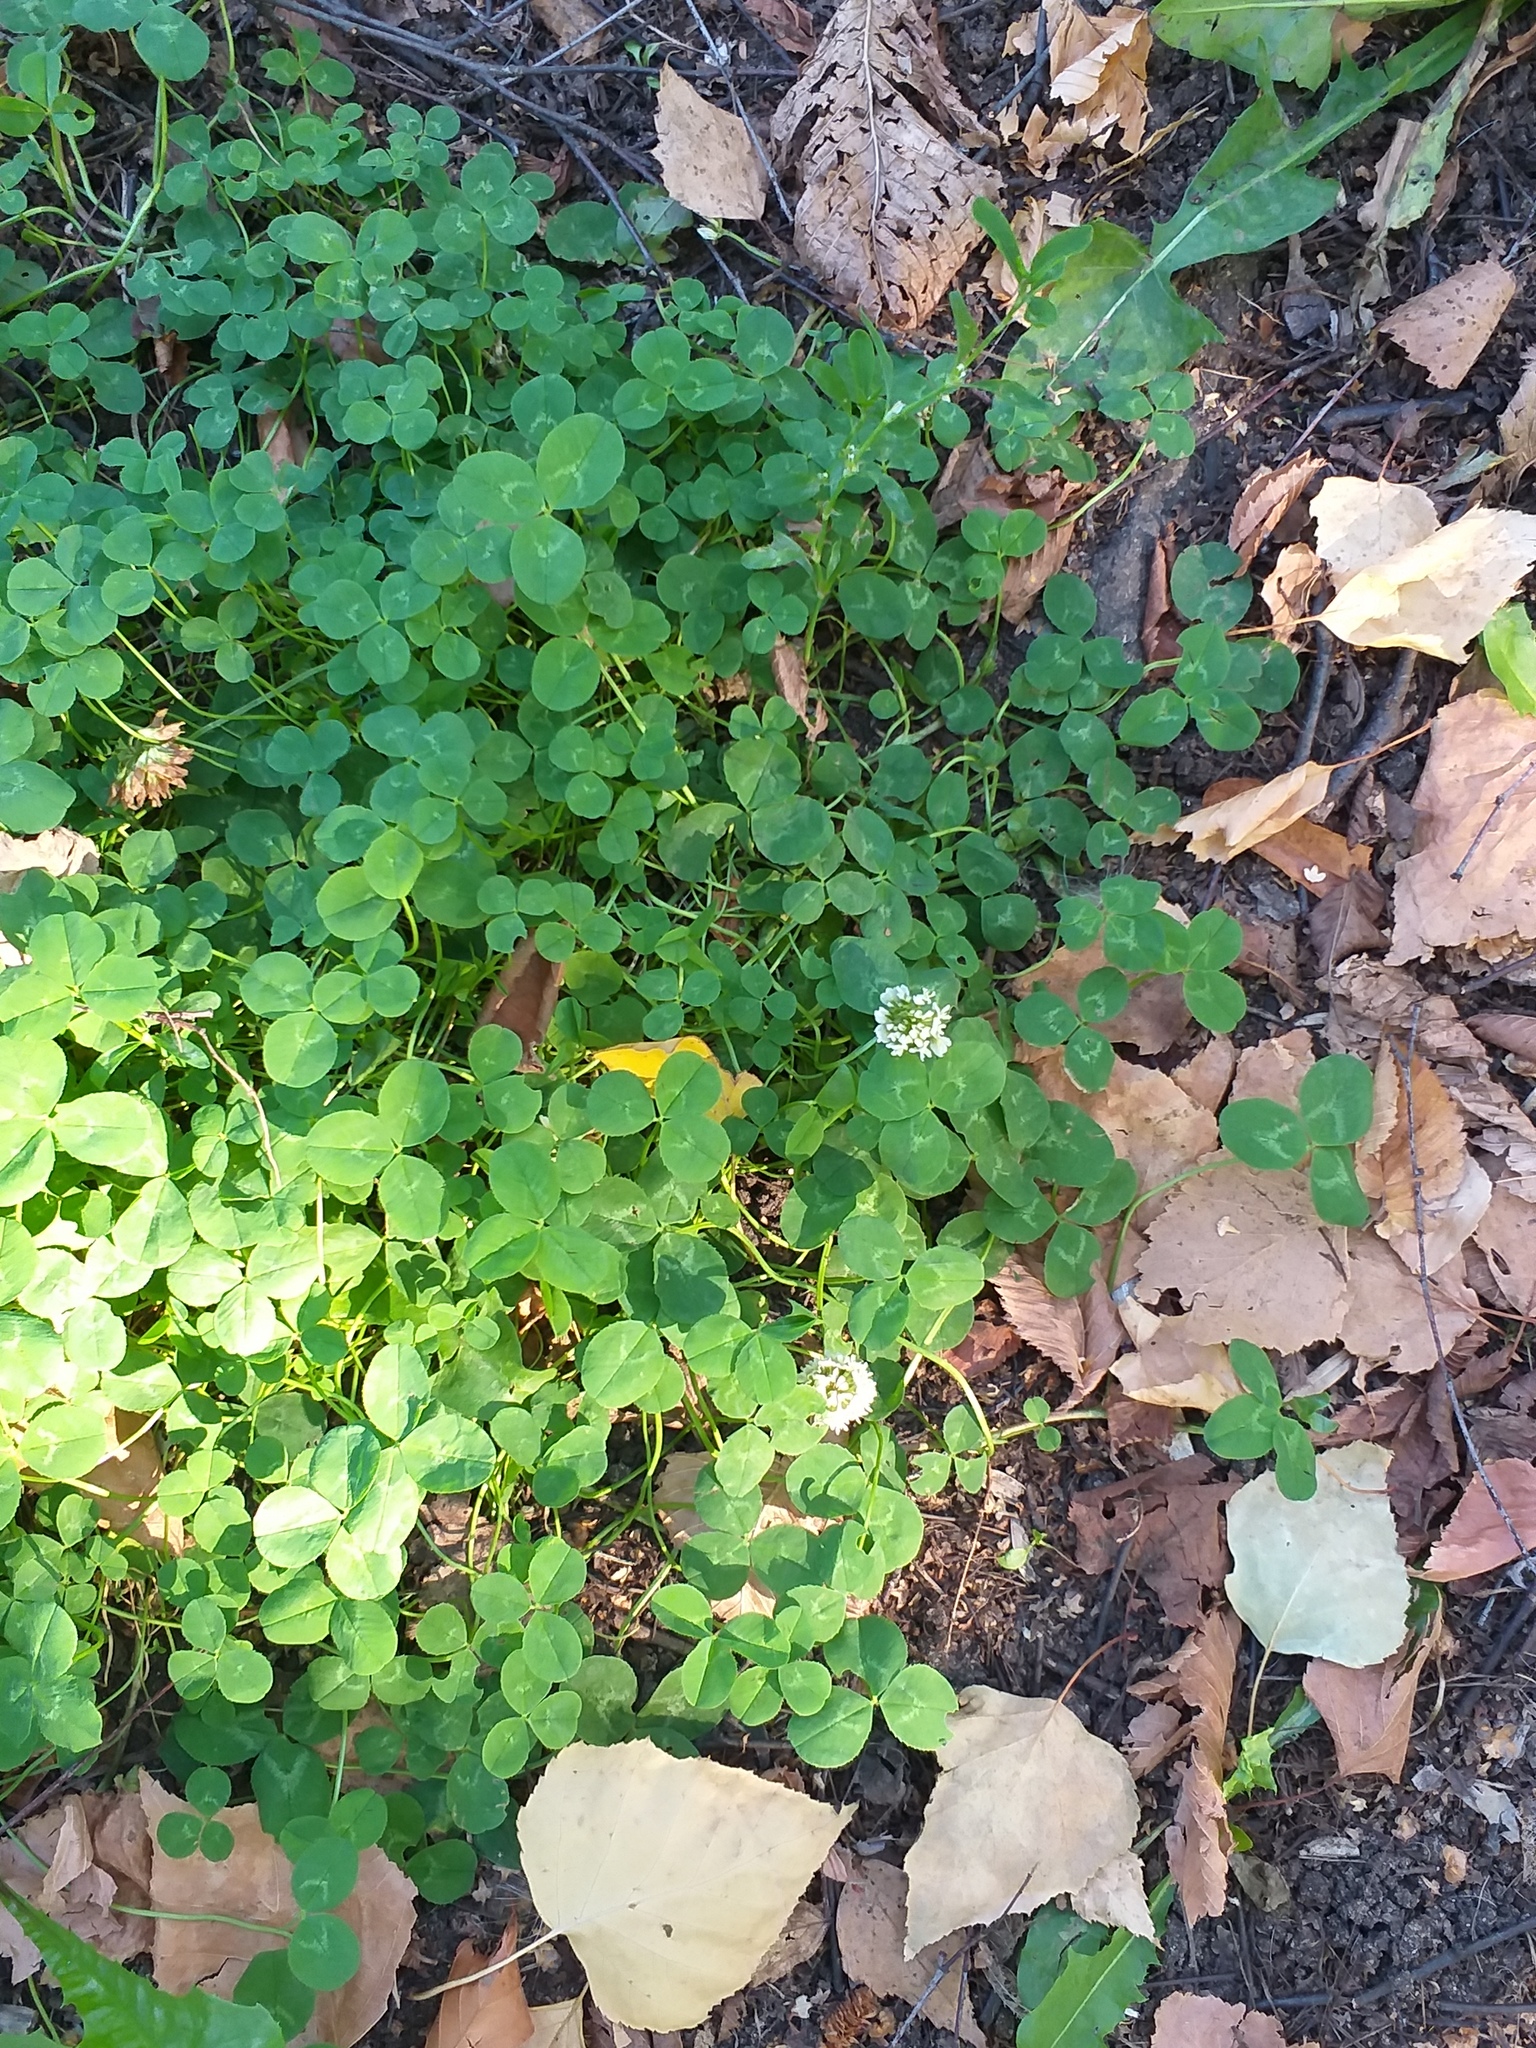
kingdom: Plantae
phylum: Tracheophyta
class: Magnoliopsida
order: Fabales
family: Fabaceae
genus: Trifolium
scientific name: Trifolium repens
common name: White clover
